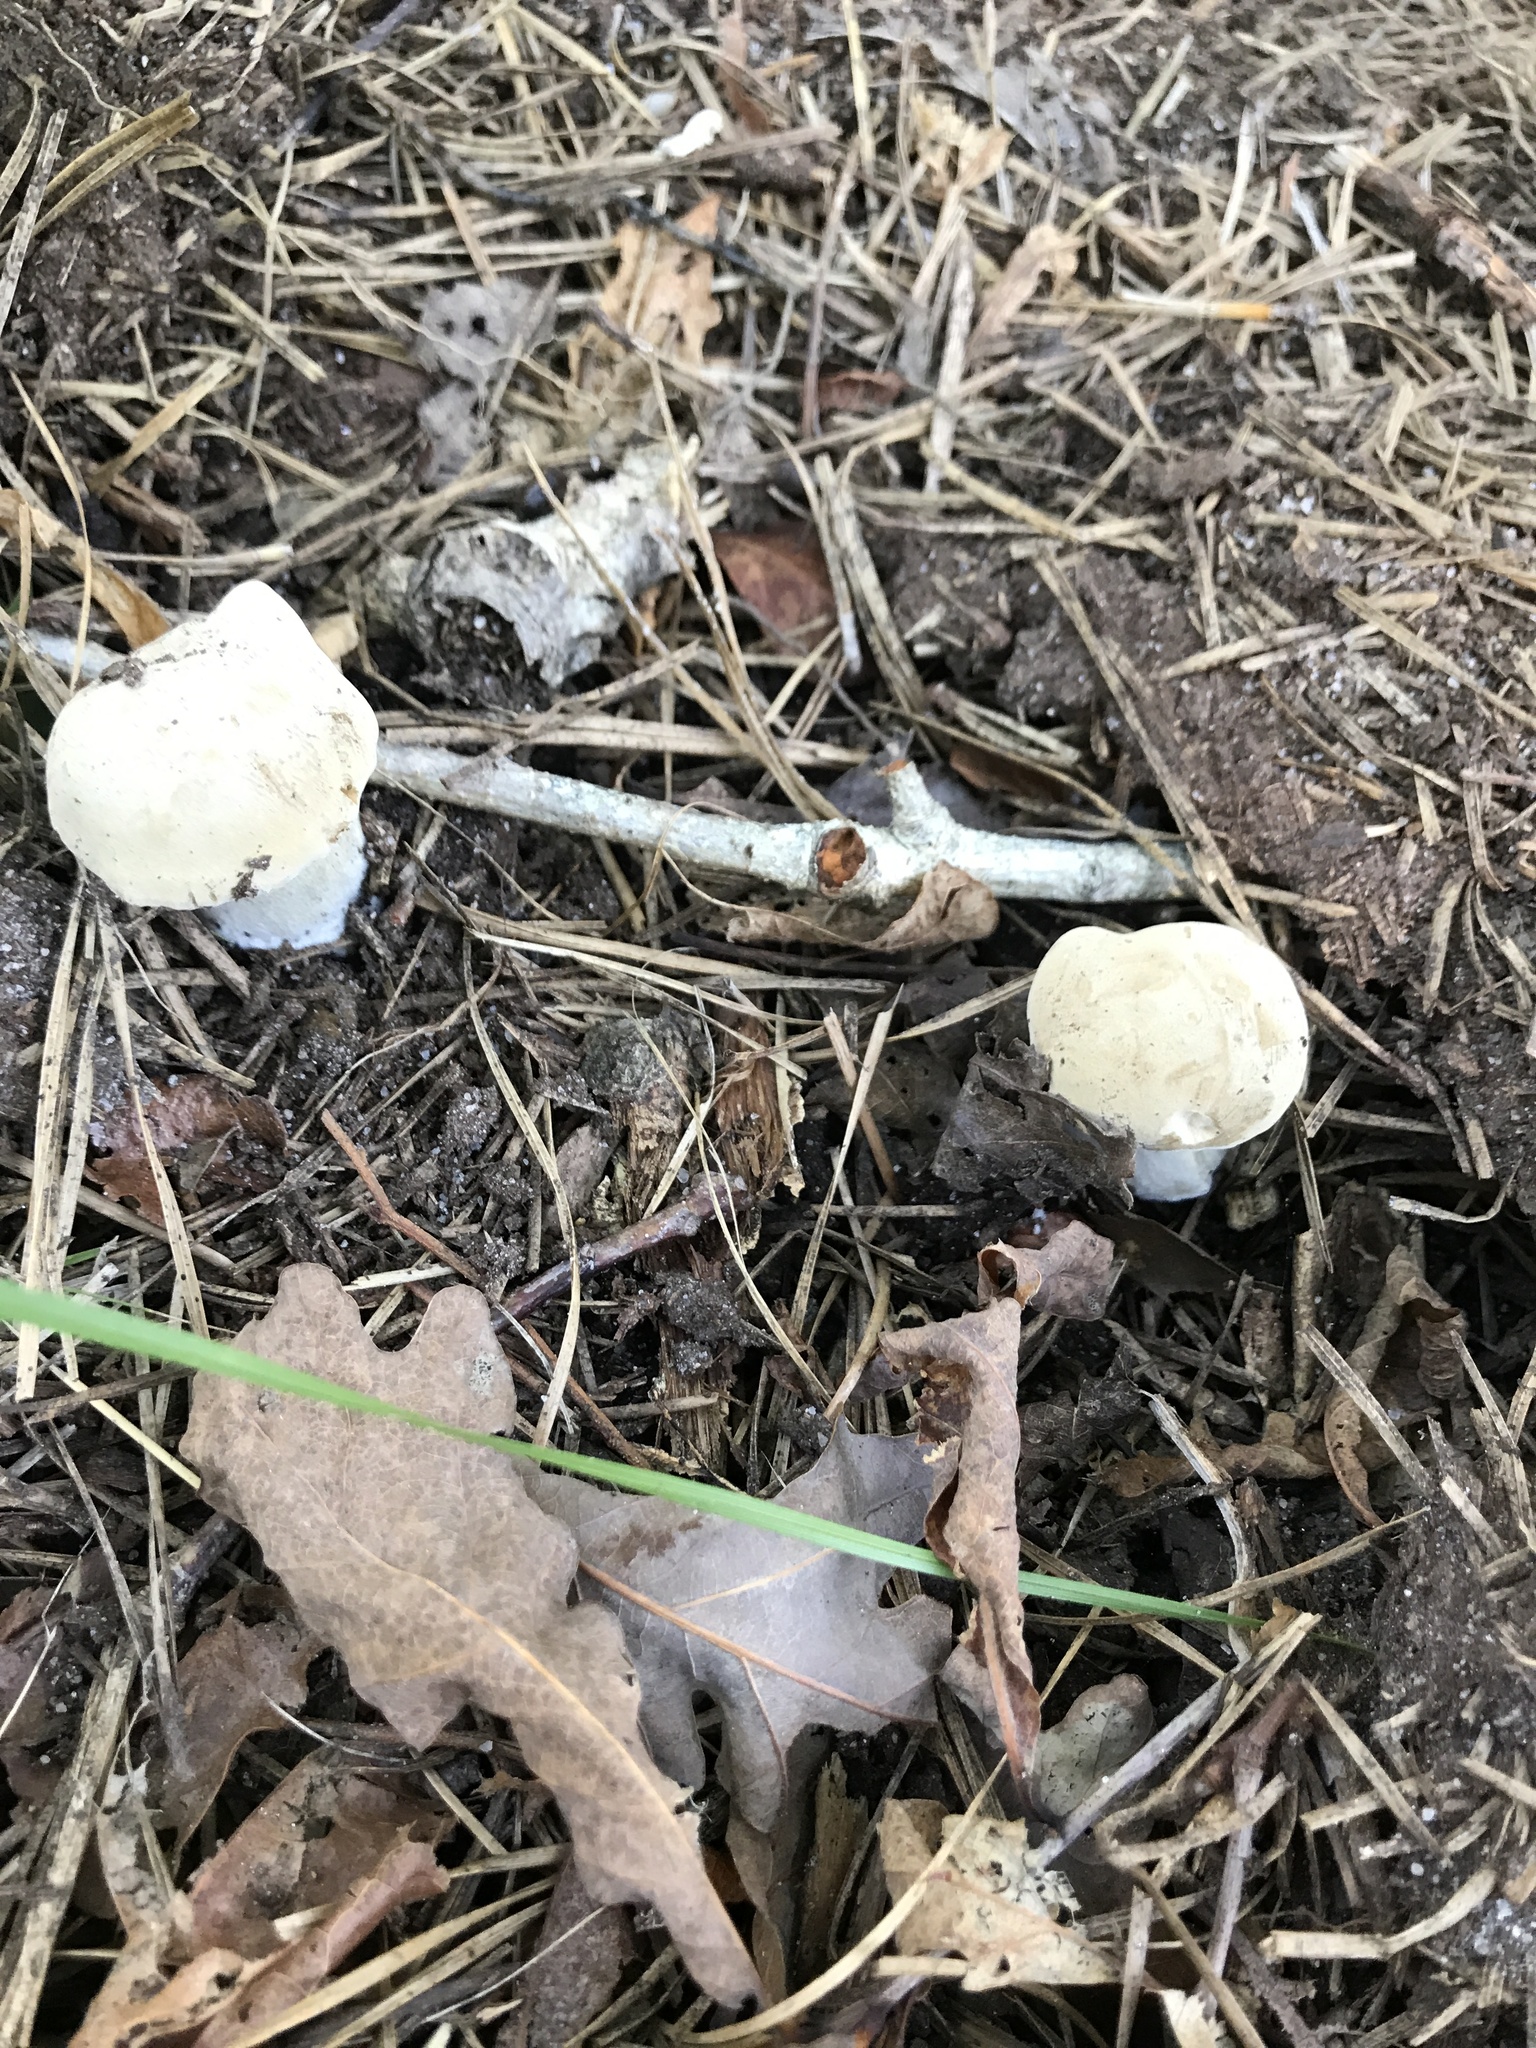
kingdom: Fungi
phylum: Basidiomycota
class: Agaricomycetes
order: Boletales
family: Boletaceae
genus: Imleria
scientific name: Imleria pallida
